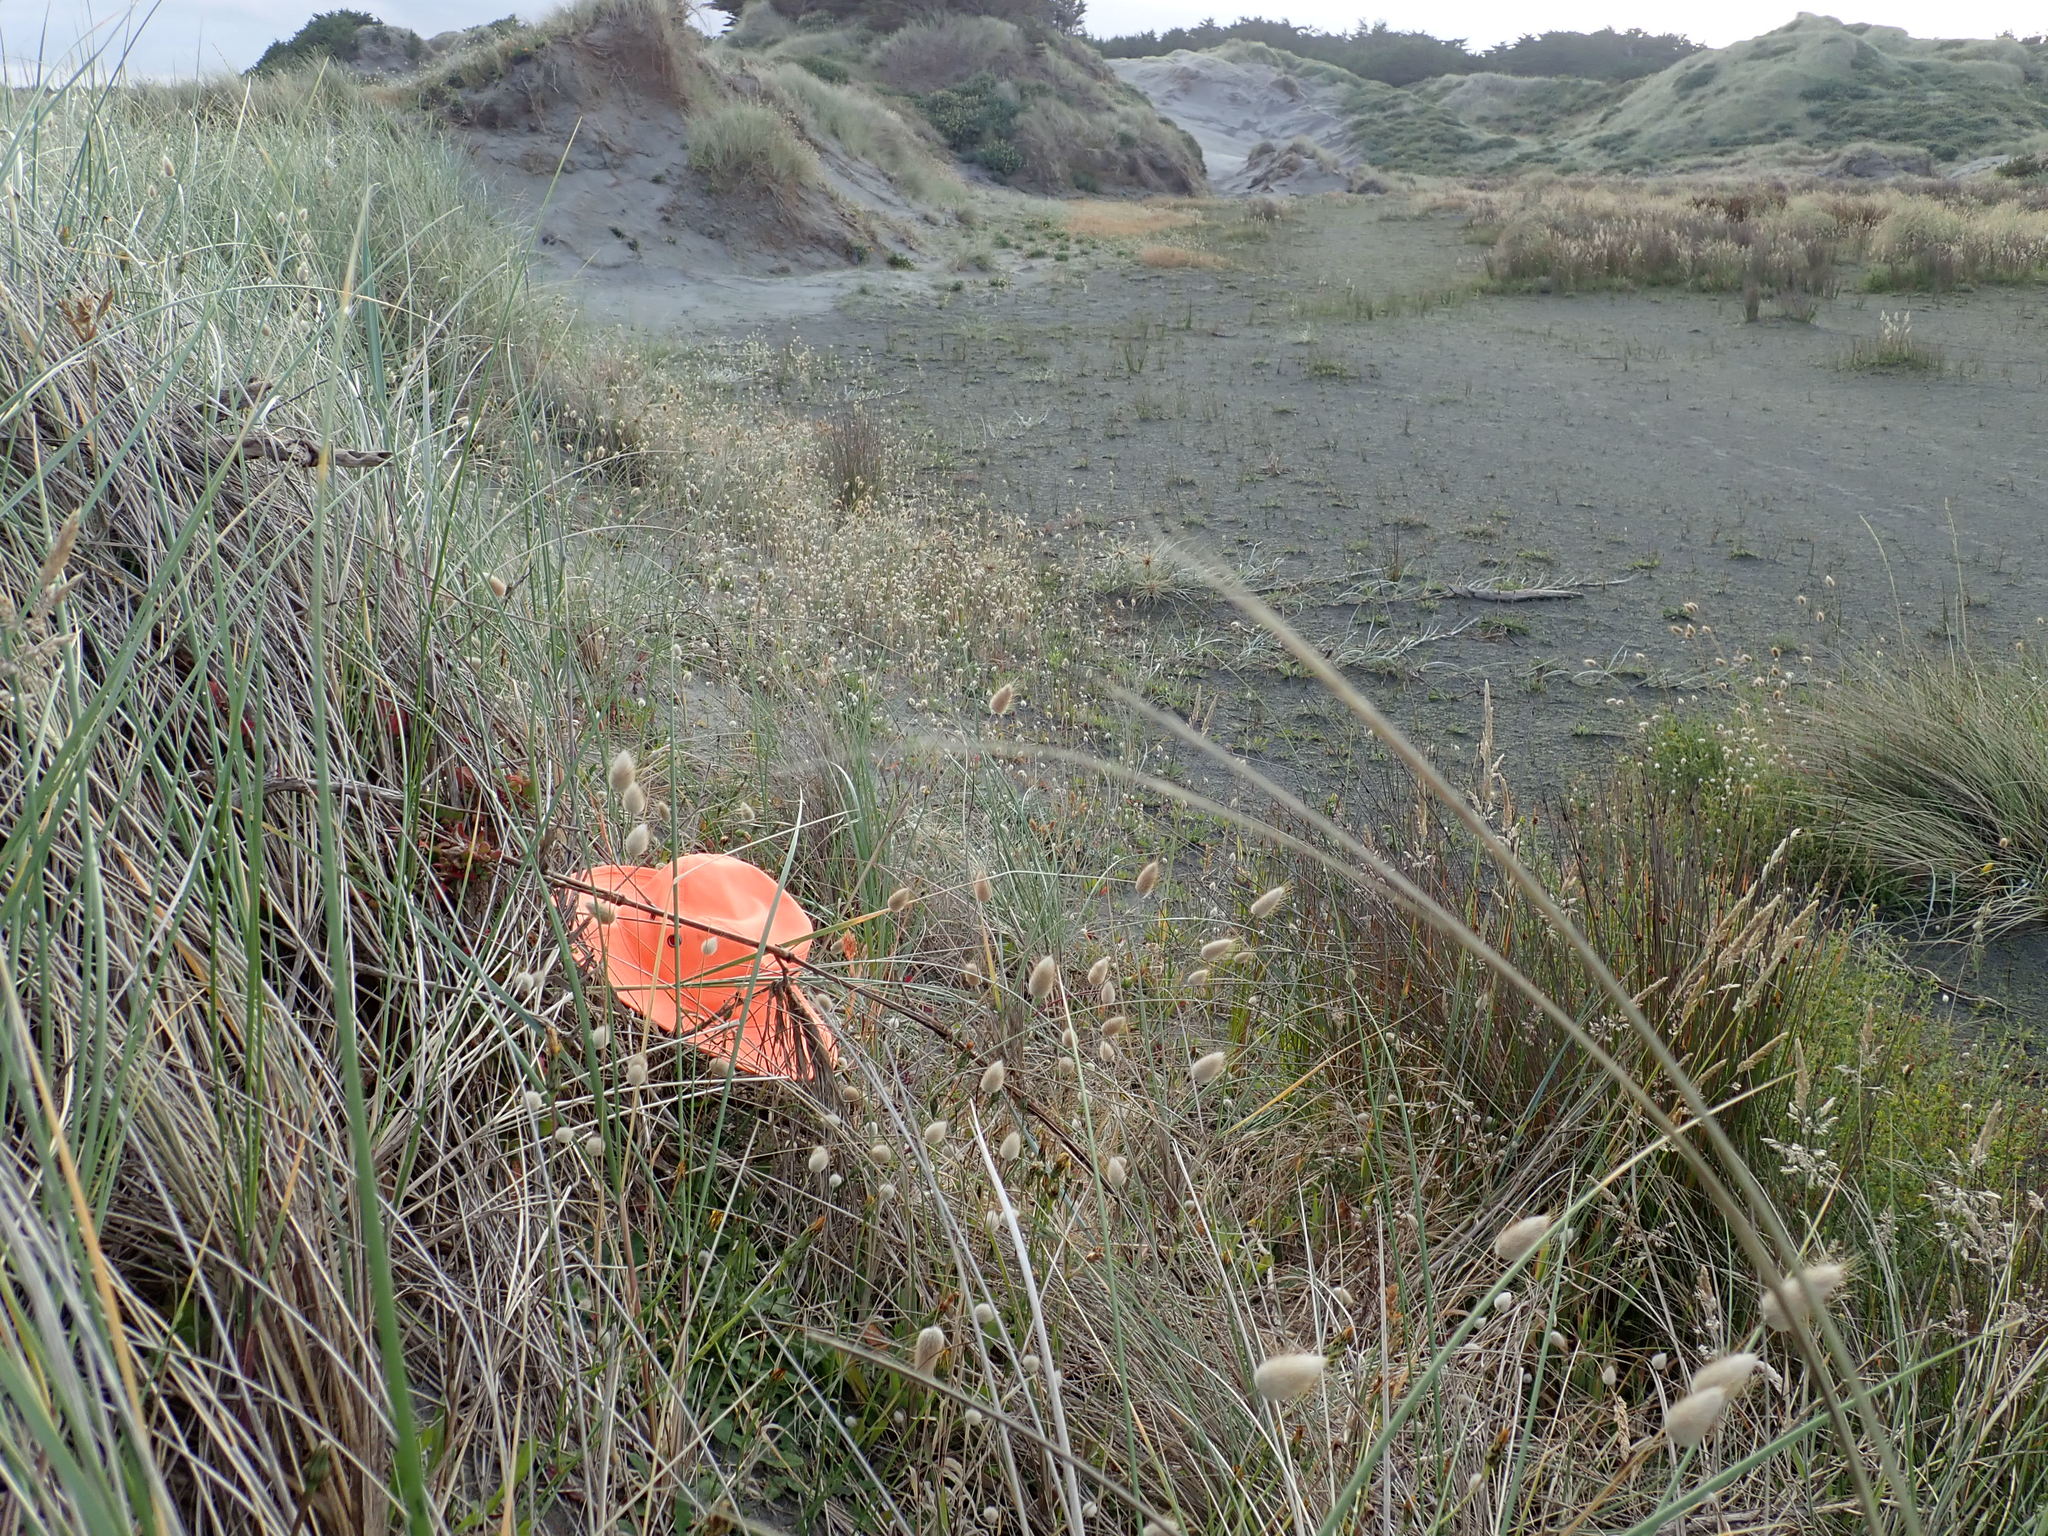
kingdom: Plantae
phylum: Tracheophyta
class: Magnoliopsida
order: Caryophyllales
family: Aizoaceae
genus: Tetragonia
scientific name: Tetragonia implexicoma
